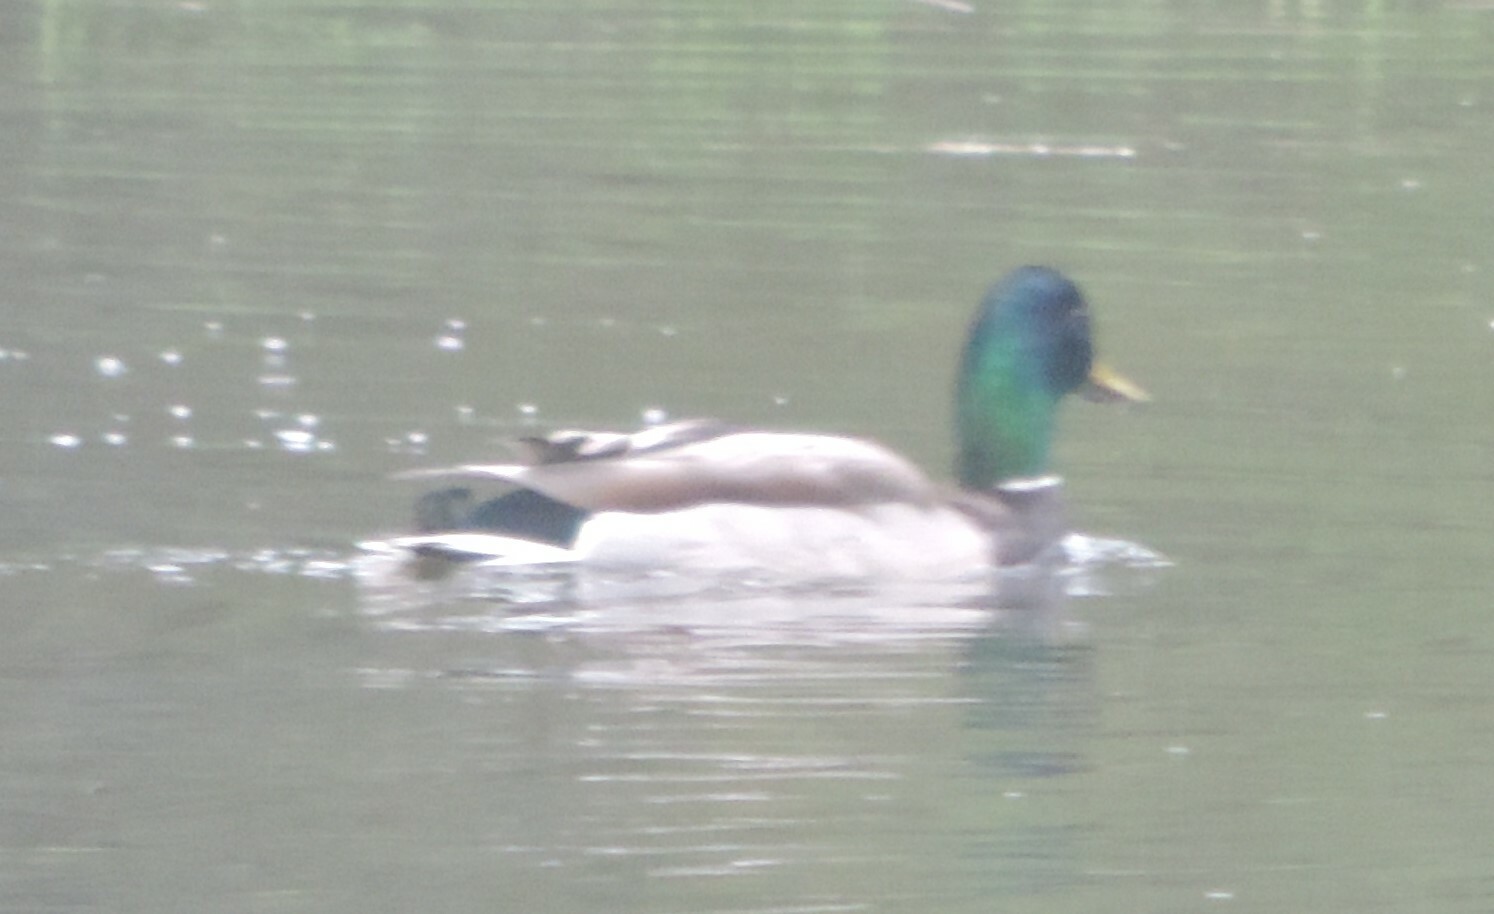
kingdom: Animalia
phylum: Chordata
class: Aves
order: Anseriformes
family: Anatidae
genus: Anas
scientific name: Anas platyrhynchos
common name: Mallard
